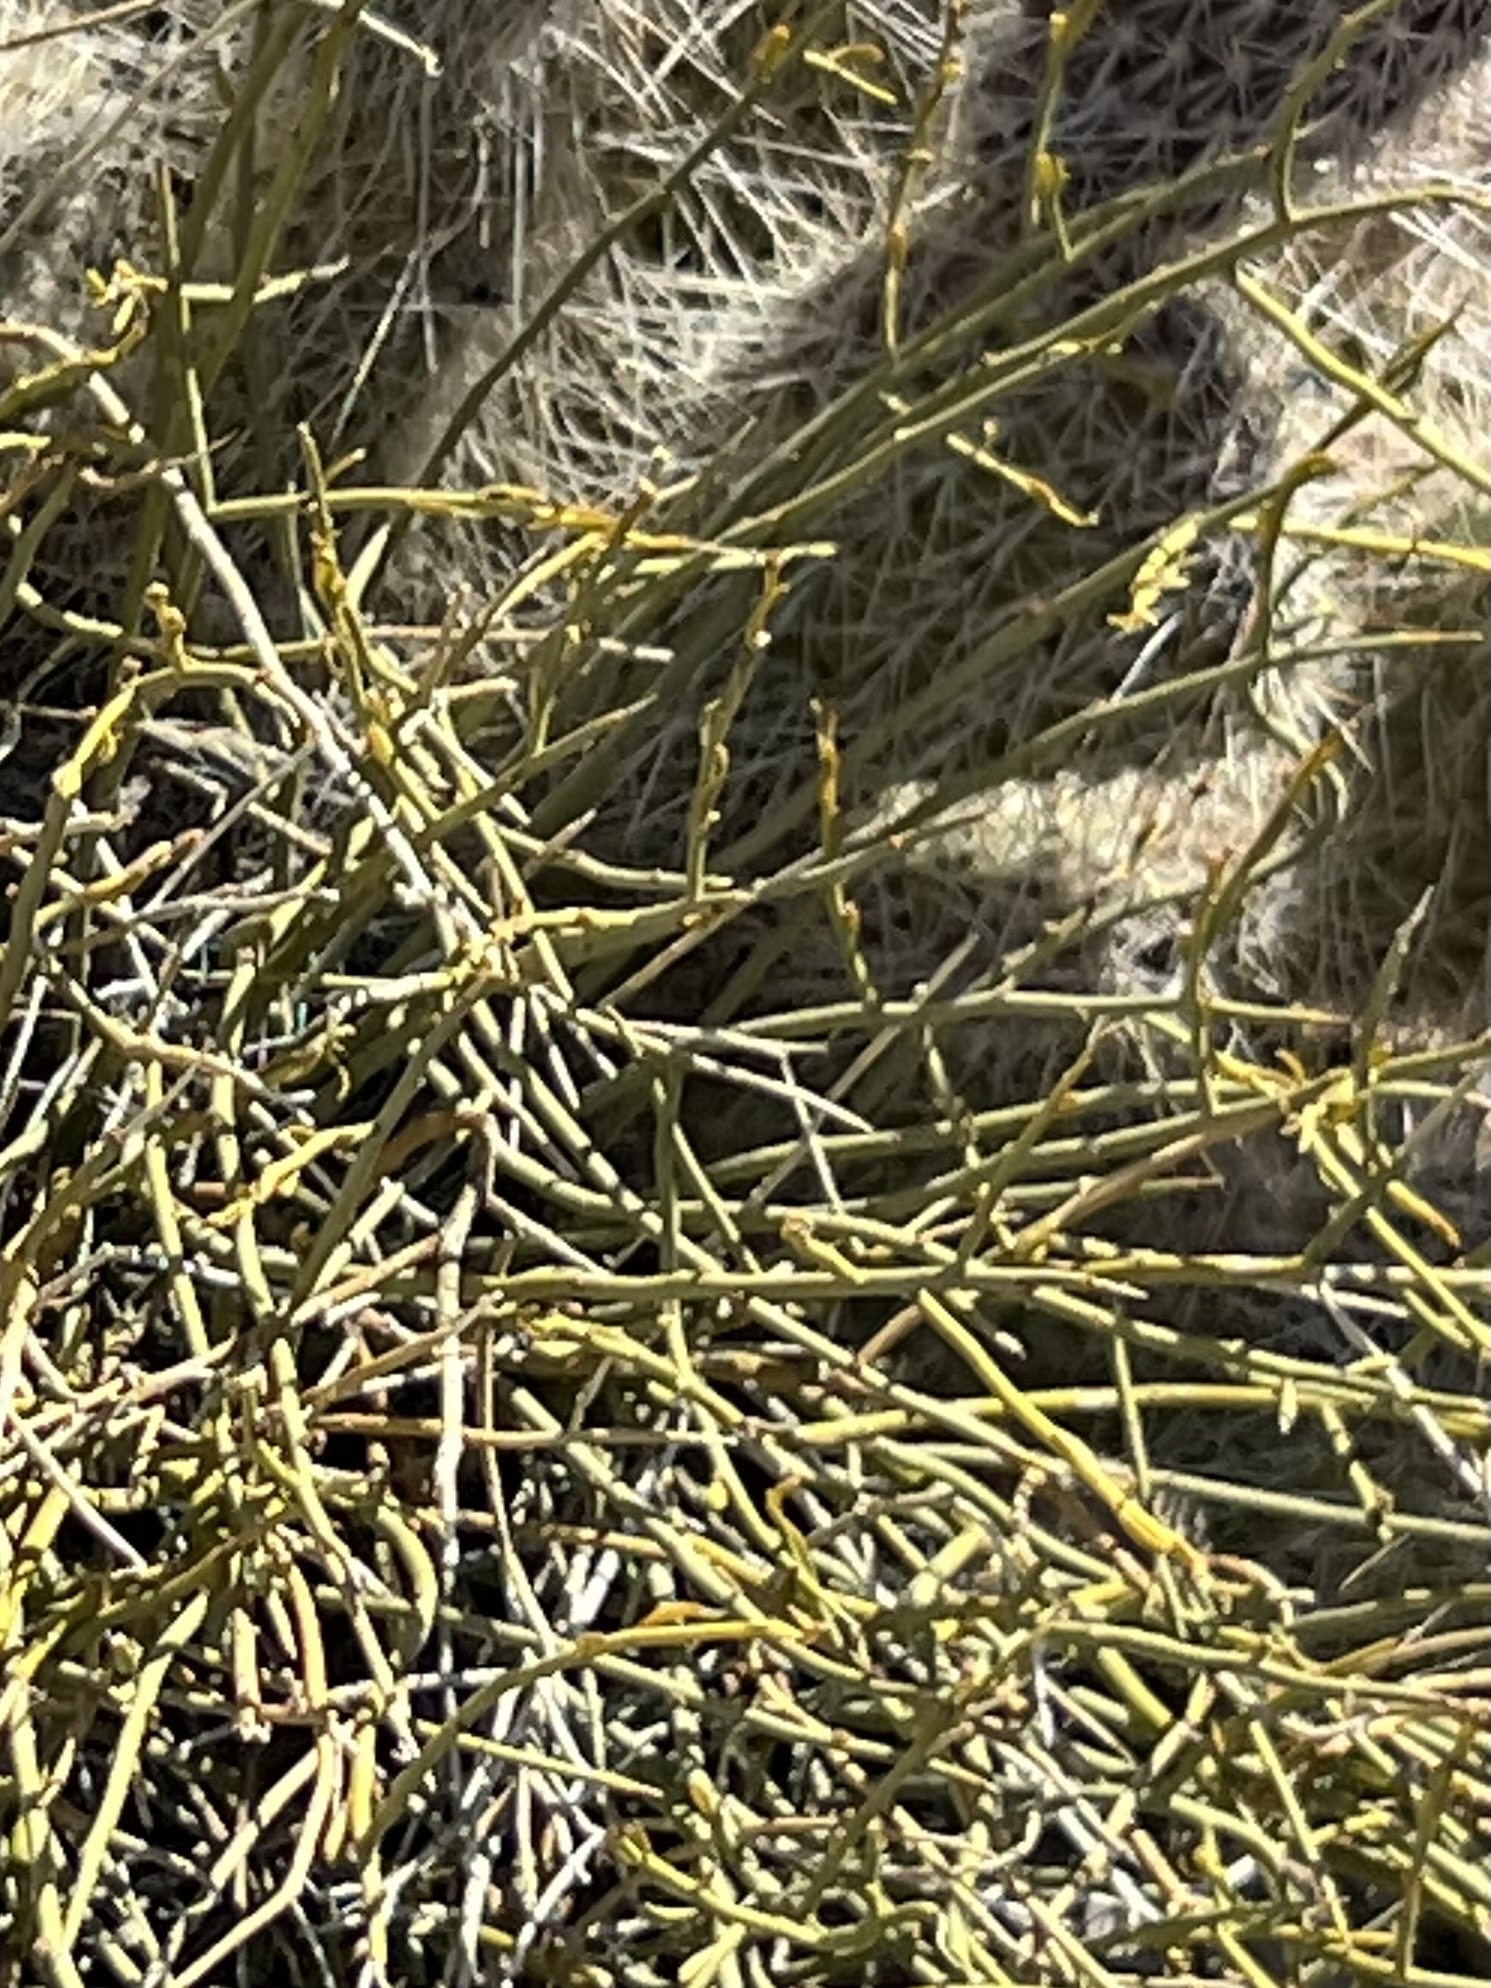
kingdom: Plantae
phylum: Tracheophyta
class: Magnoliopsida
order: Sapindales
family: Rutaceae
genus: Thamnosma
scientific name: Thamnosma montana
